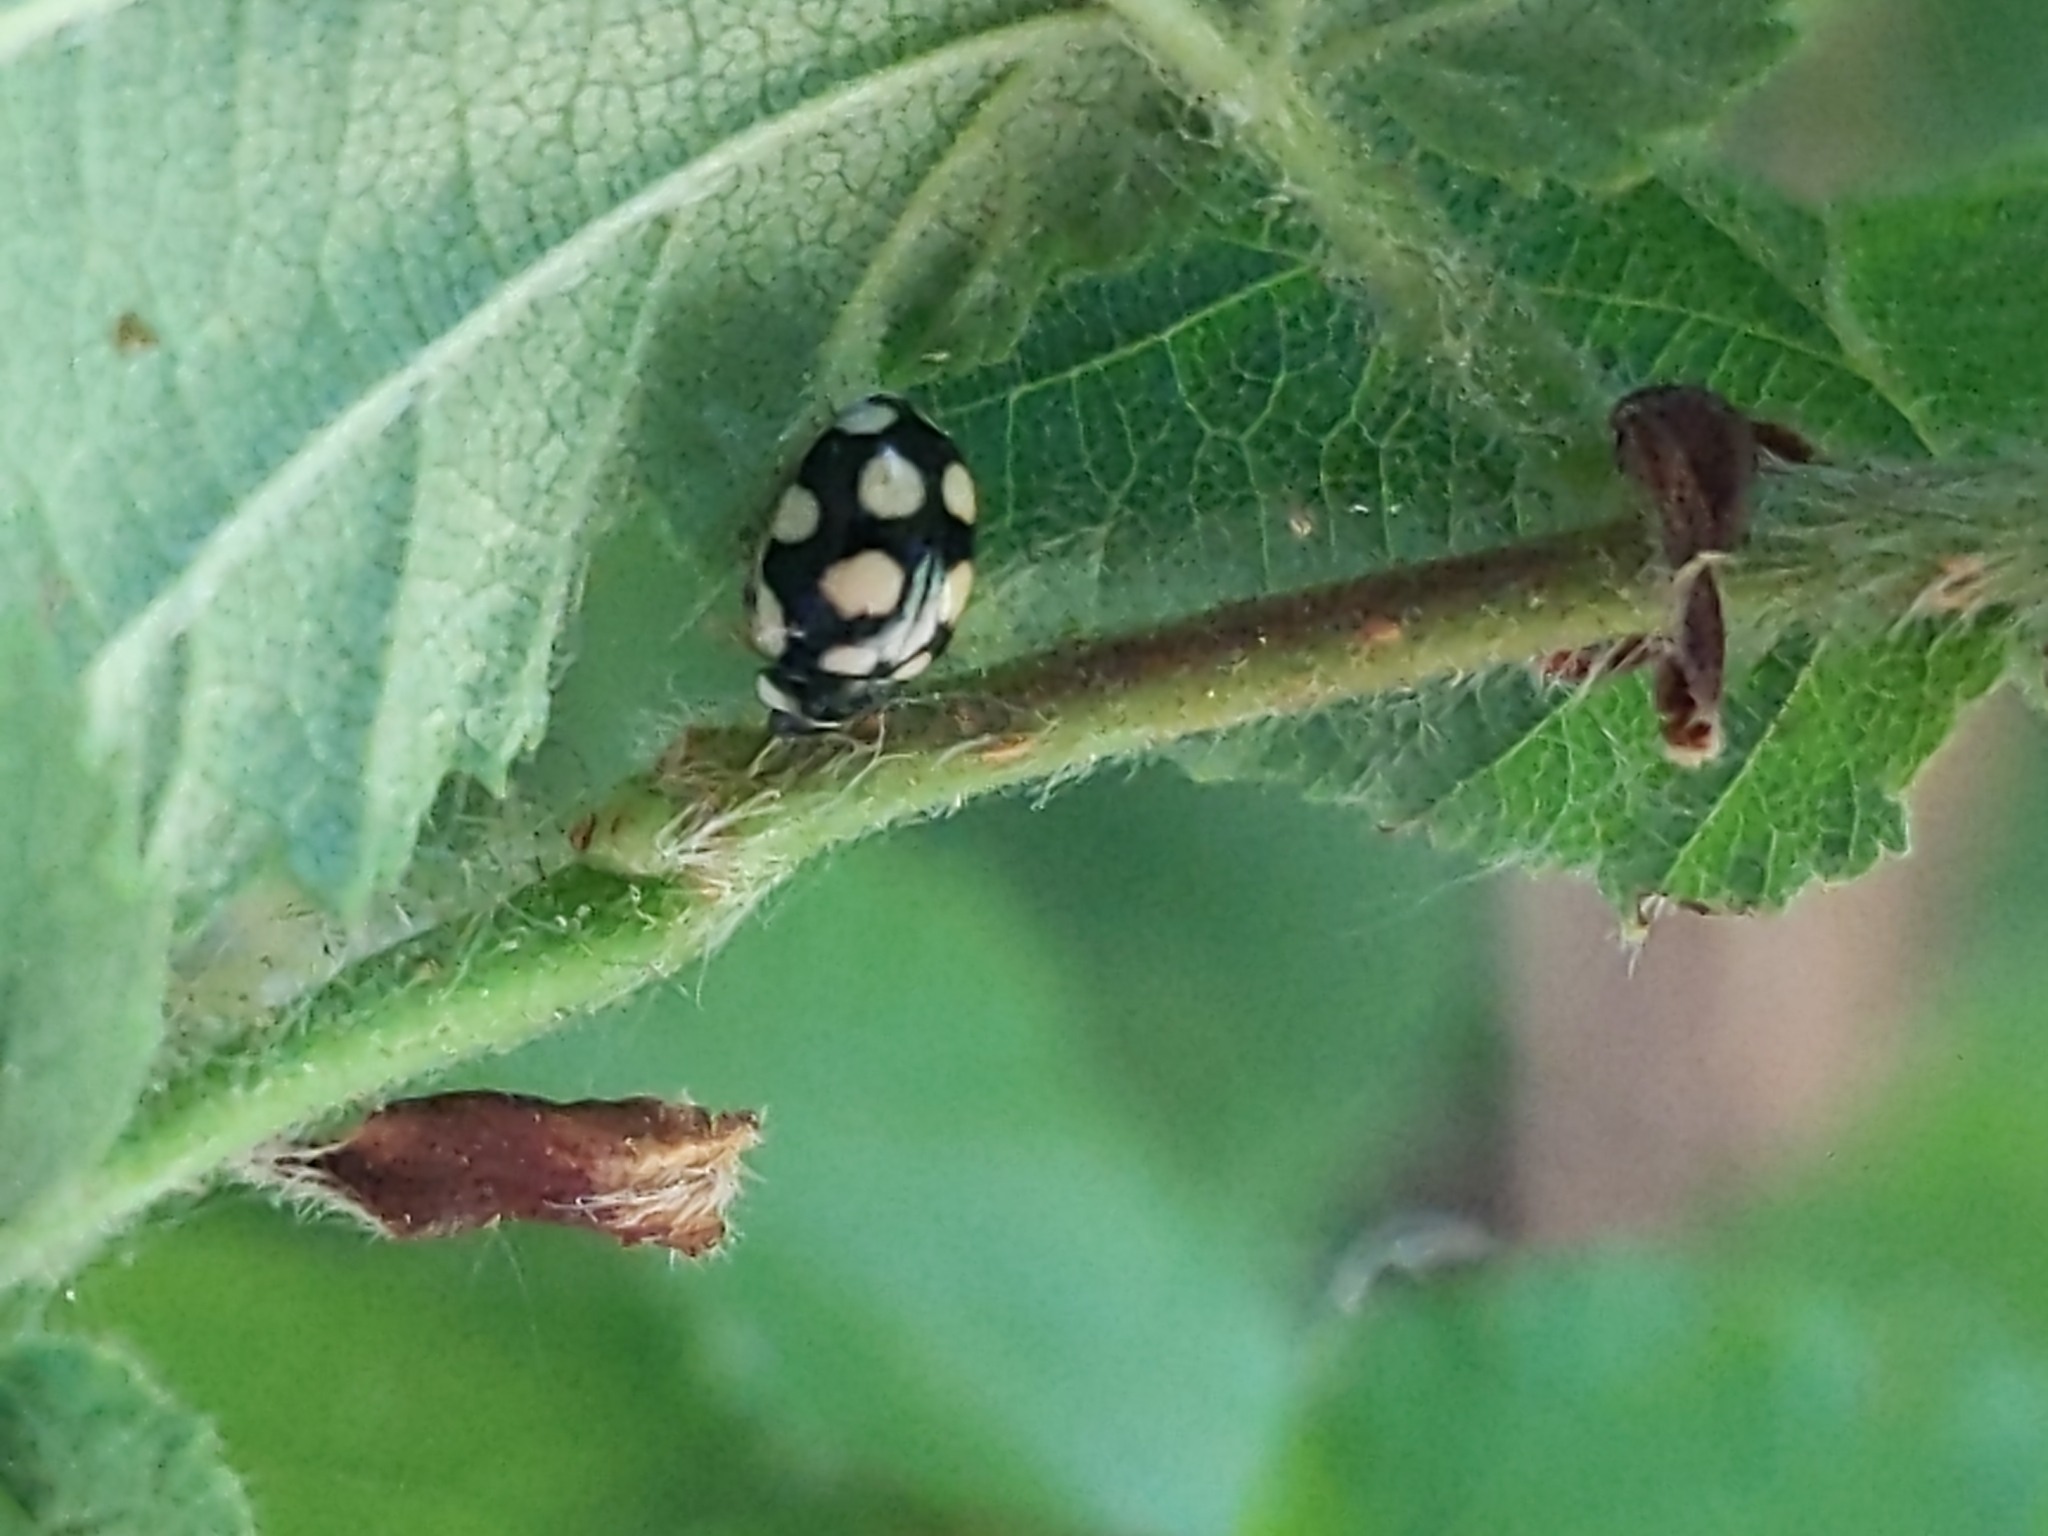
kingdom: Animalia
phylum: Arthropoda
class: Insecta
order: Coleoptera
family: Coccinellidae
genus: Oenopia
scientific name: Oenopia lyncea
